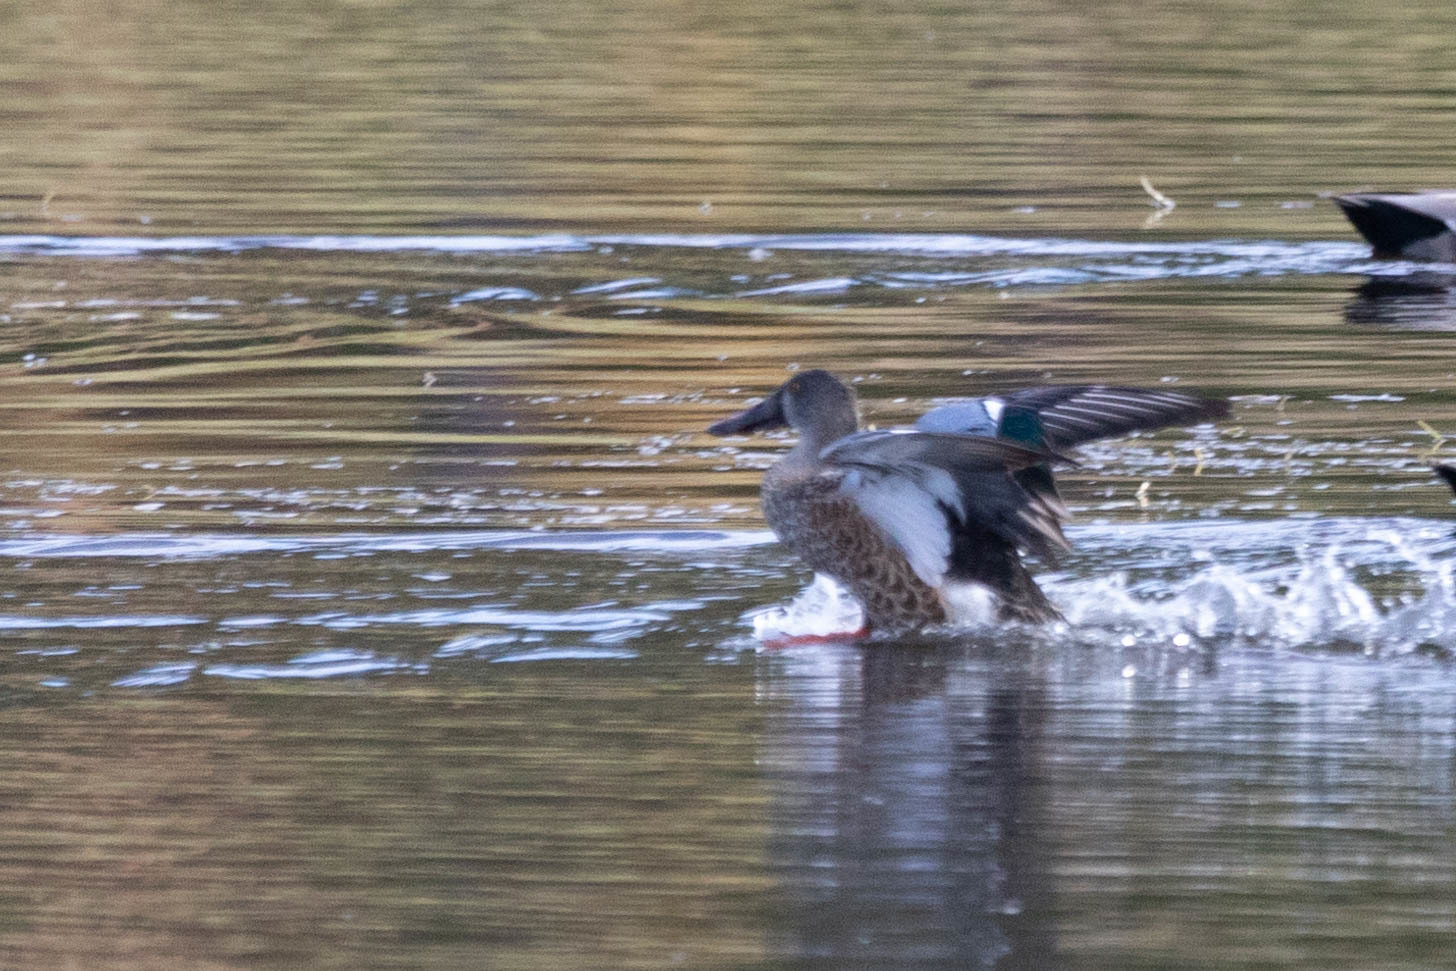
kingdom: Animalia
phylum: Chordata
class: Aves
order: Anseriformes
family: Anatidae
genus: Spatula
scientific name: Spatula clypeata
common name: Northern shoveler
